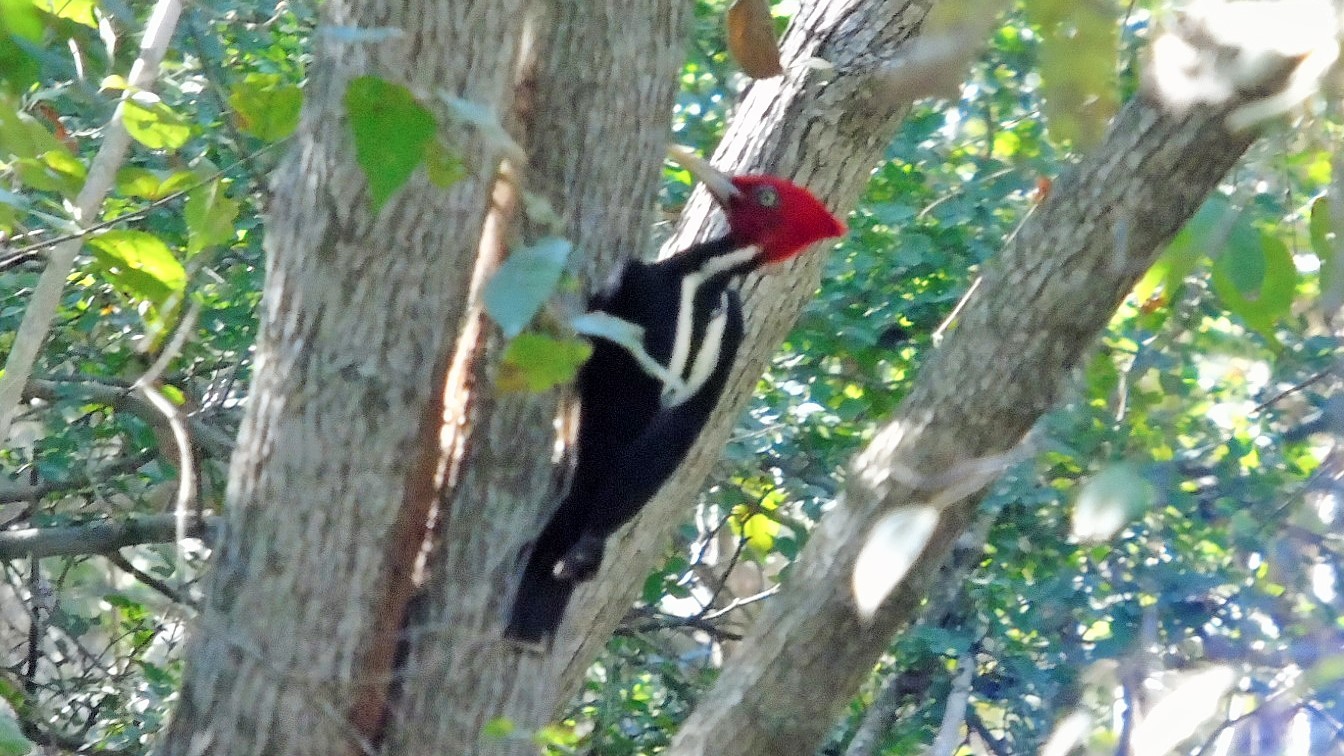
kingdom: Animalia
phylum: Chordata
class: Aves
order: Piciformes
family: Picidae
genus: Campephilus
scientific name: Campephilus guatemalensis
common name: Pale-billed woodpecker
